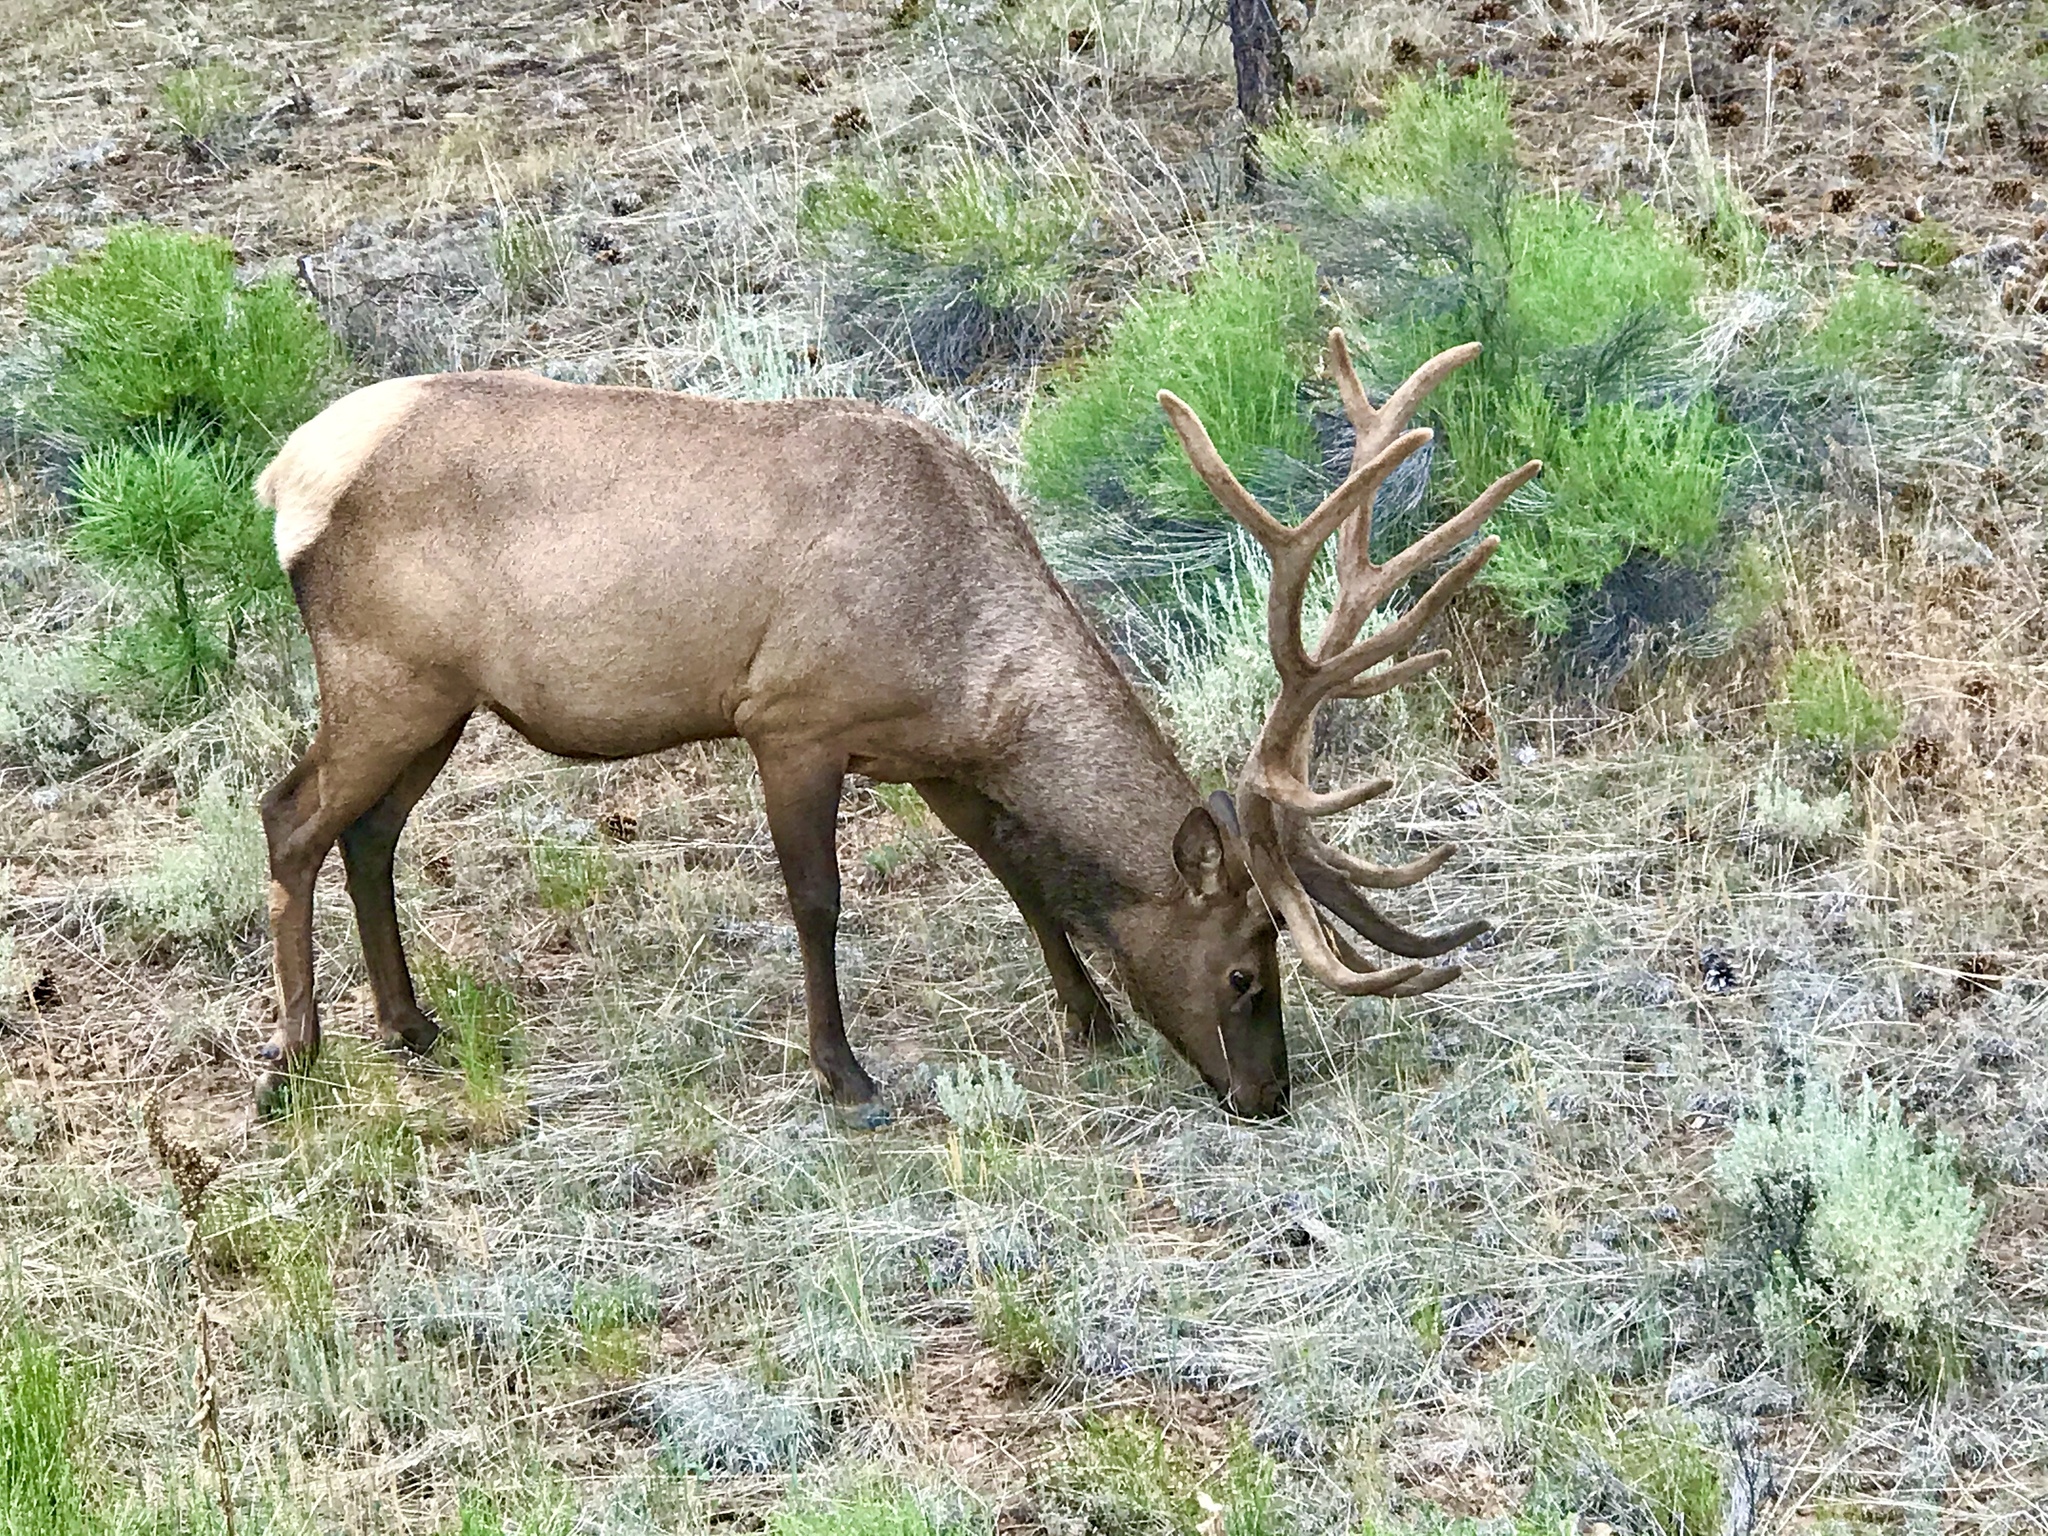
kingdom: Animalia
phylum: Chordata
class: Mammalia
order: Artiodactyla
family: Cervidae
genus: Cervus
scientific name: Cervus elaphus
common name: Red deer
